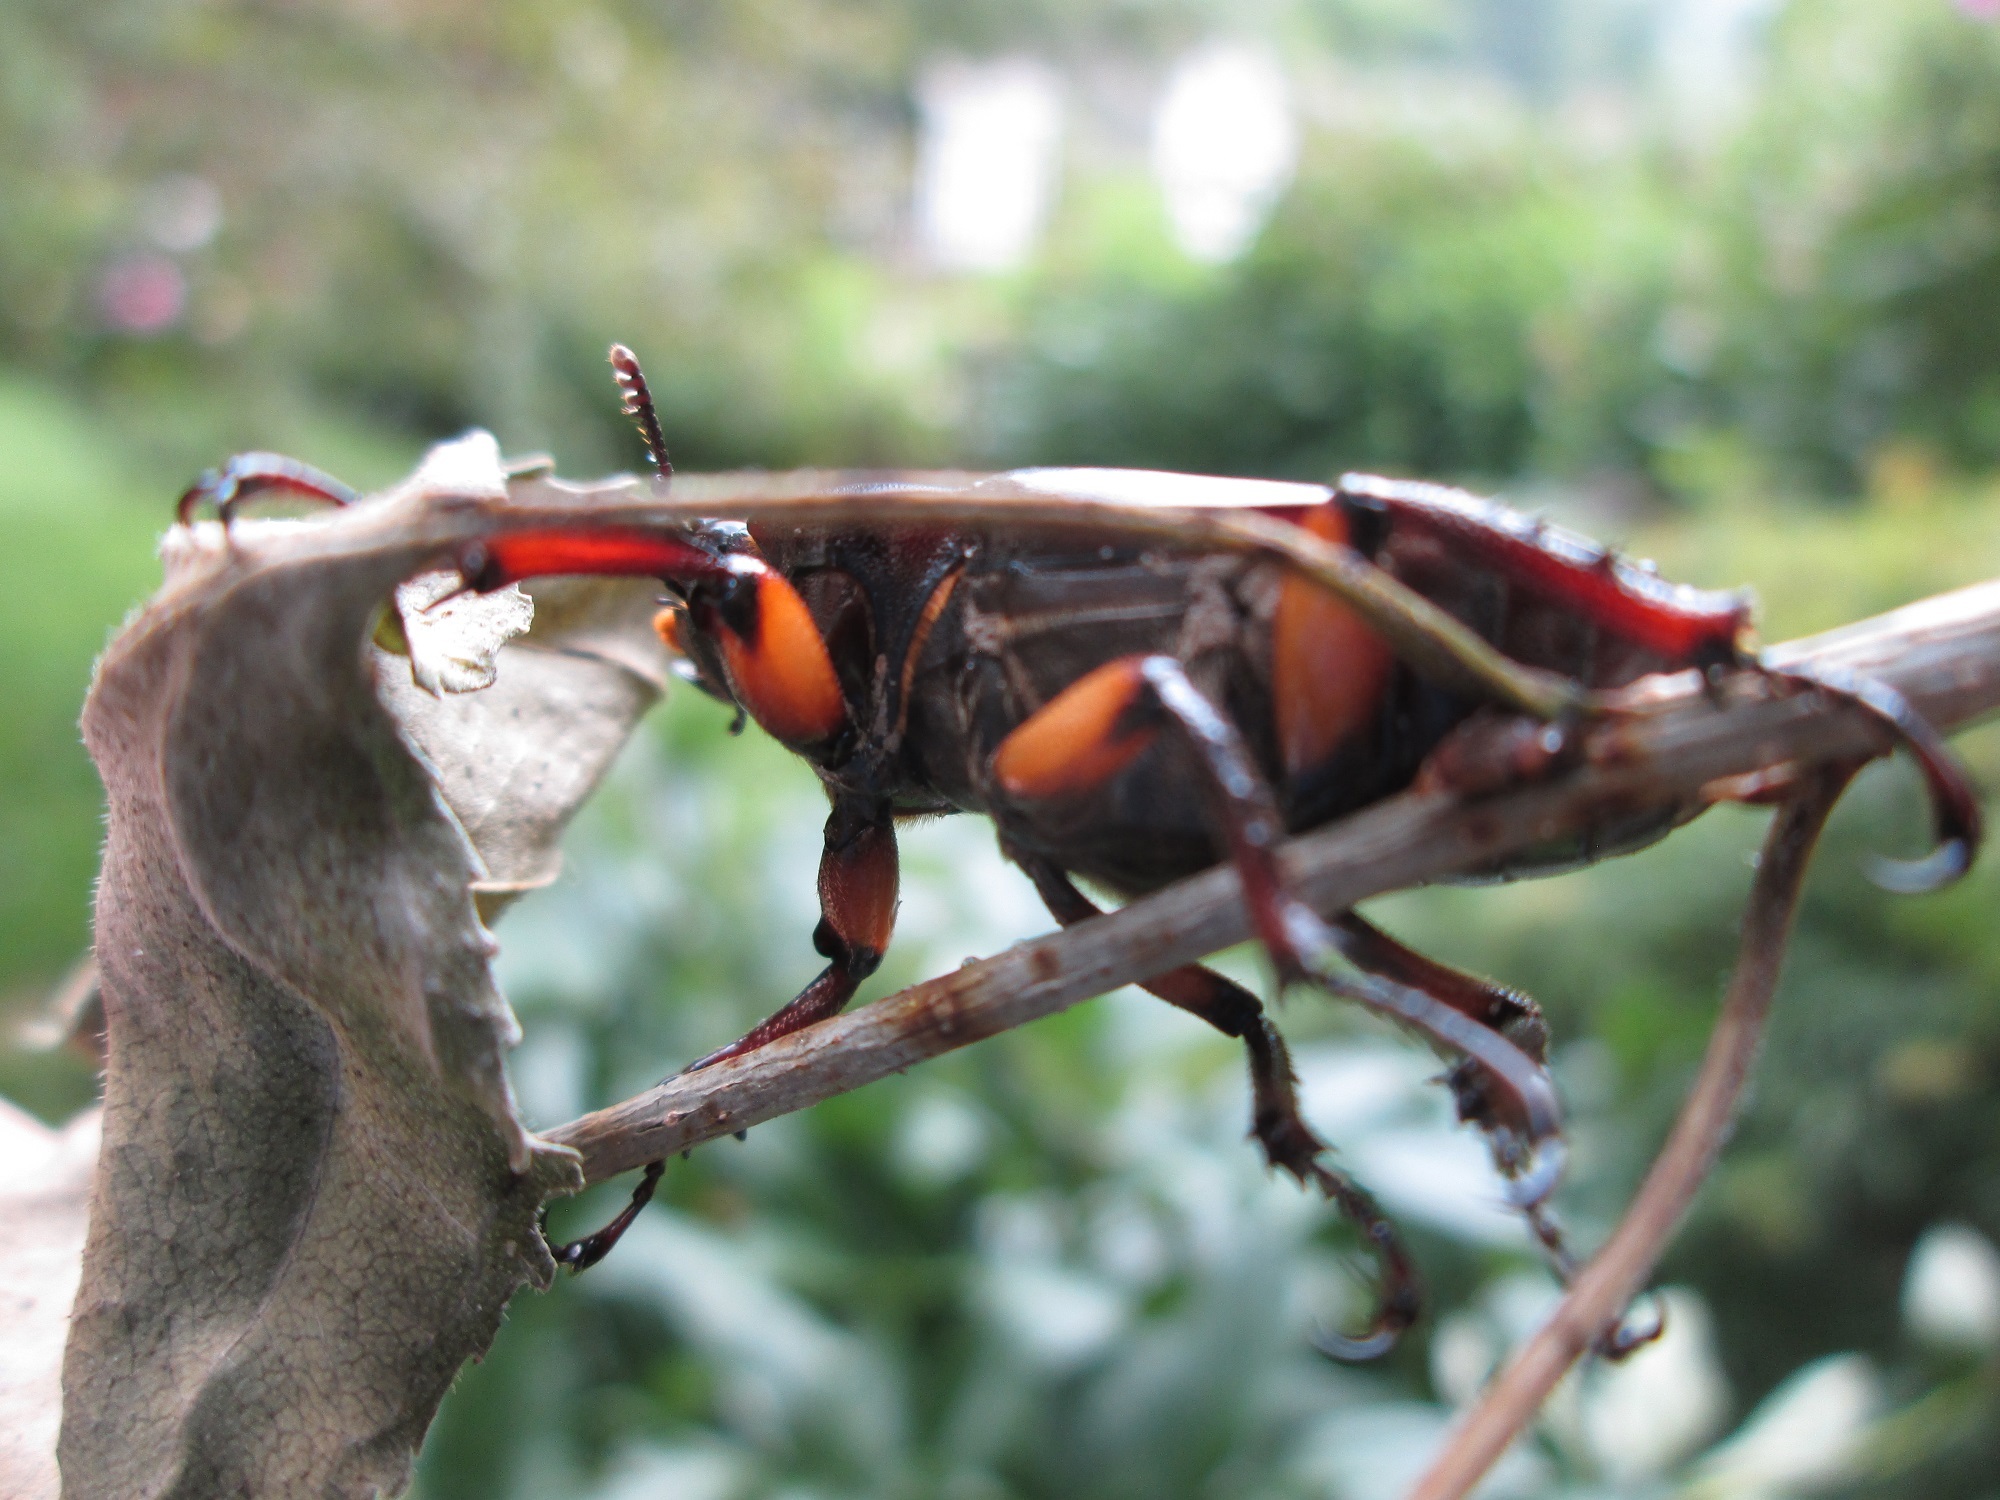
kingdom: Animalia
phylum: Arthropoda
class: Insecta
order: Coleoptera
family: Lucanidae
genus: Lucanus
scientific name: Lucanus capreolus
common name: Stag beetle
